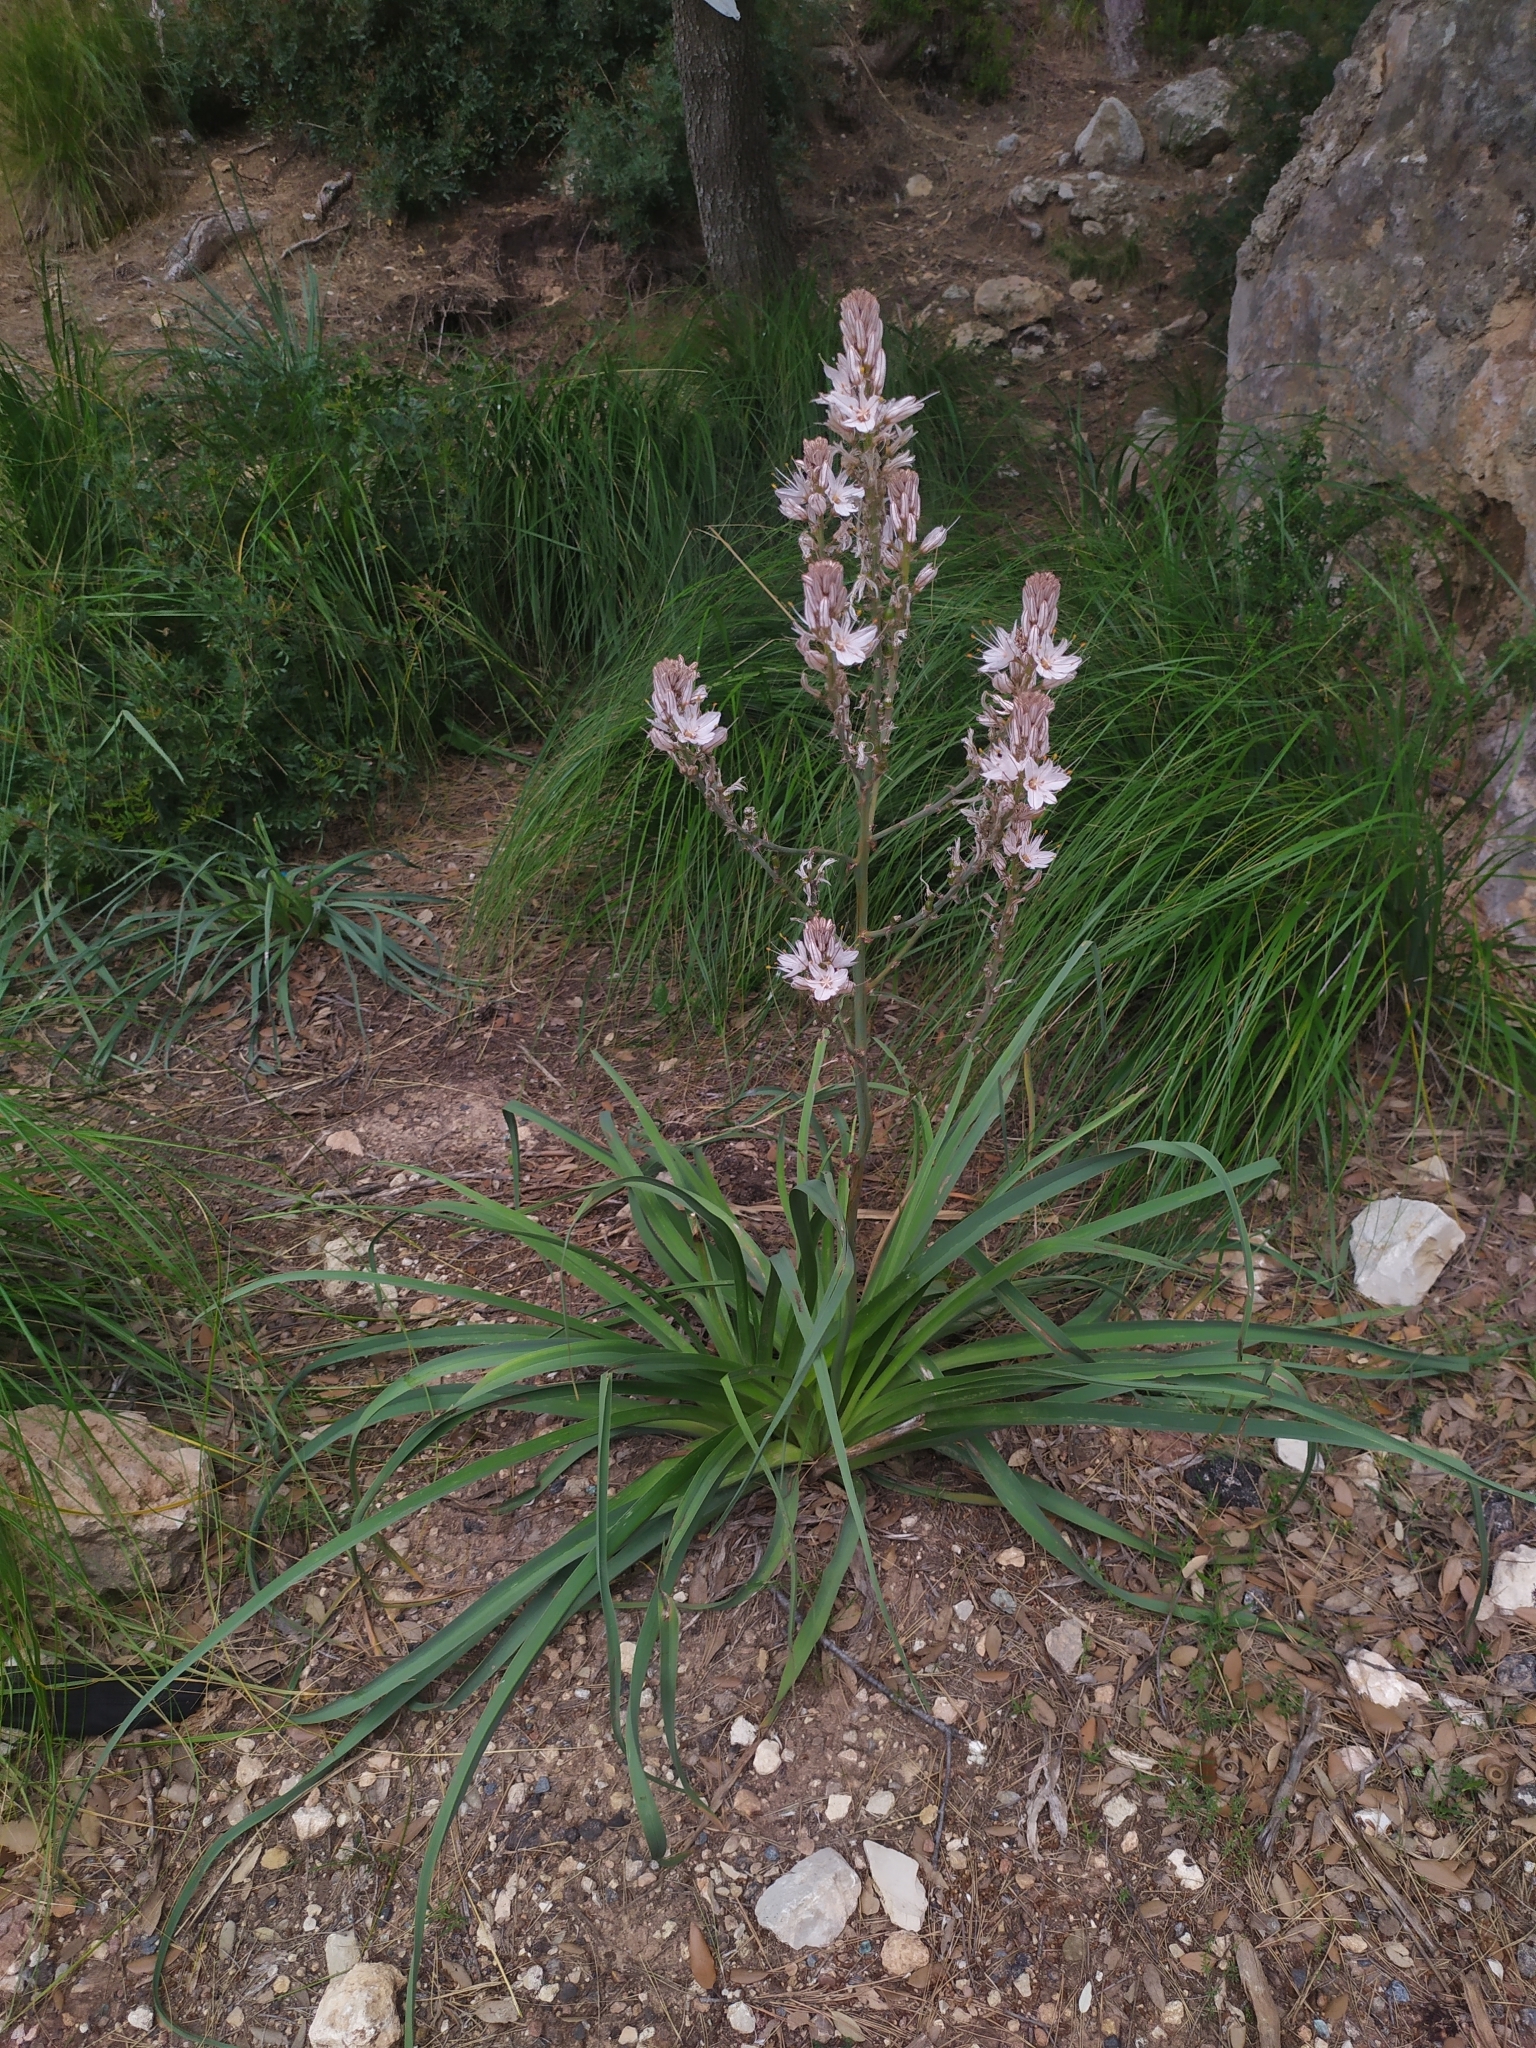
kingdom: Plantae
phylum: Tracheophyta
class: Liliopsida
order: Asparagales
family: Asphodelaceae
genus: Asphodelus
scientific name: Asphodelus ramosus
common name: Silverrod
